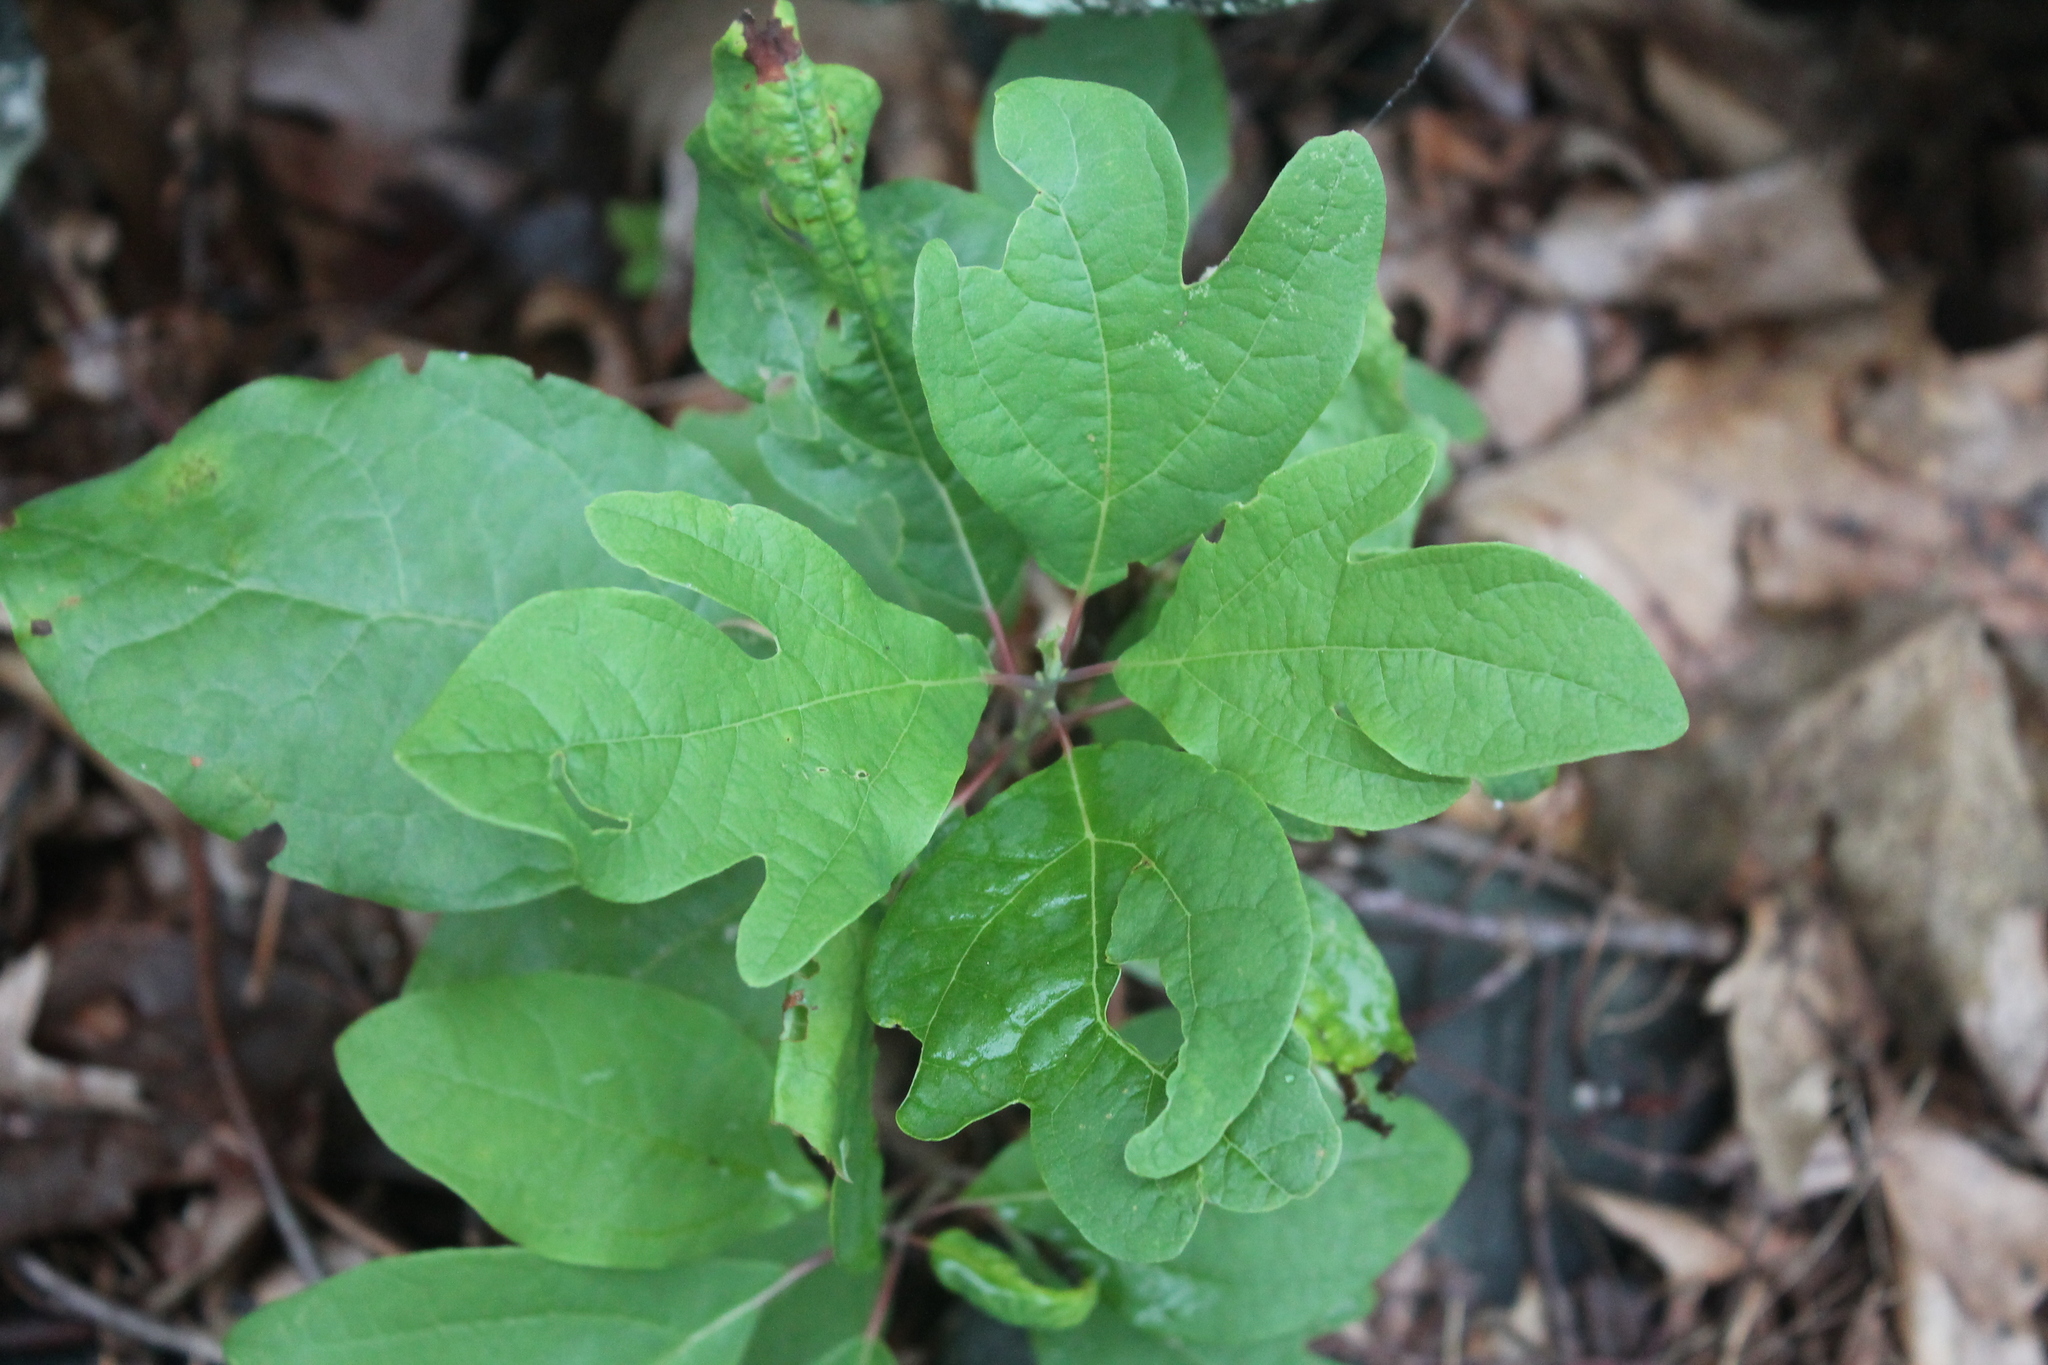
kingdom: Plantae
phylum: Tracheophyta
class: Magnoliopsida
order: Laurales
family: Lauraceae
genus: Sassafras
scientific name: Sassafras albidum
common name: Sassafras
